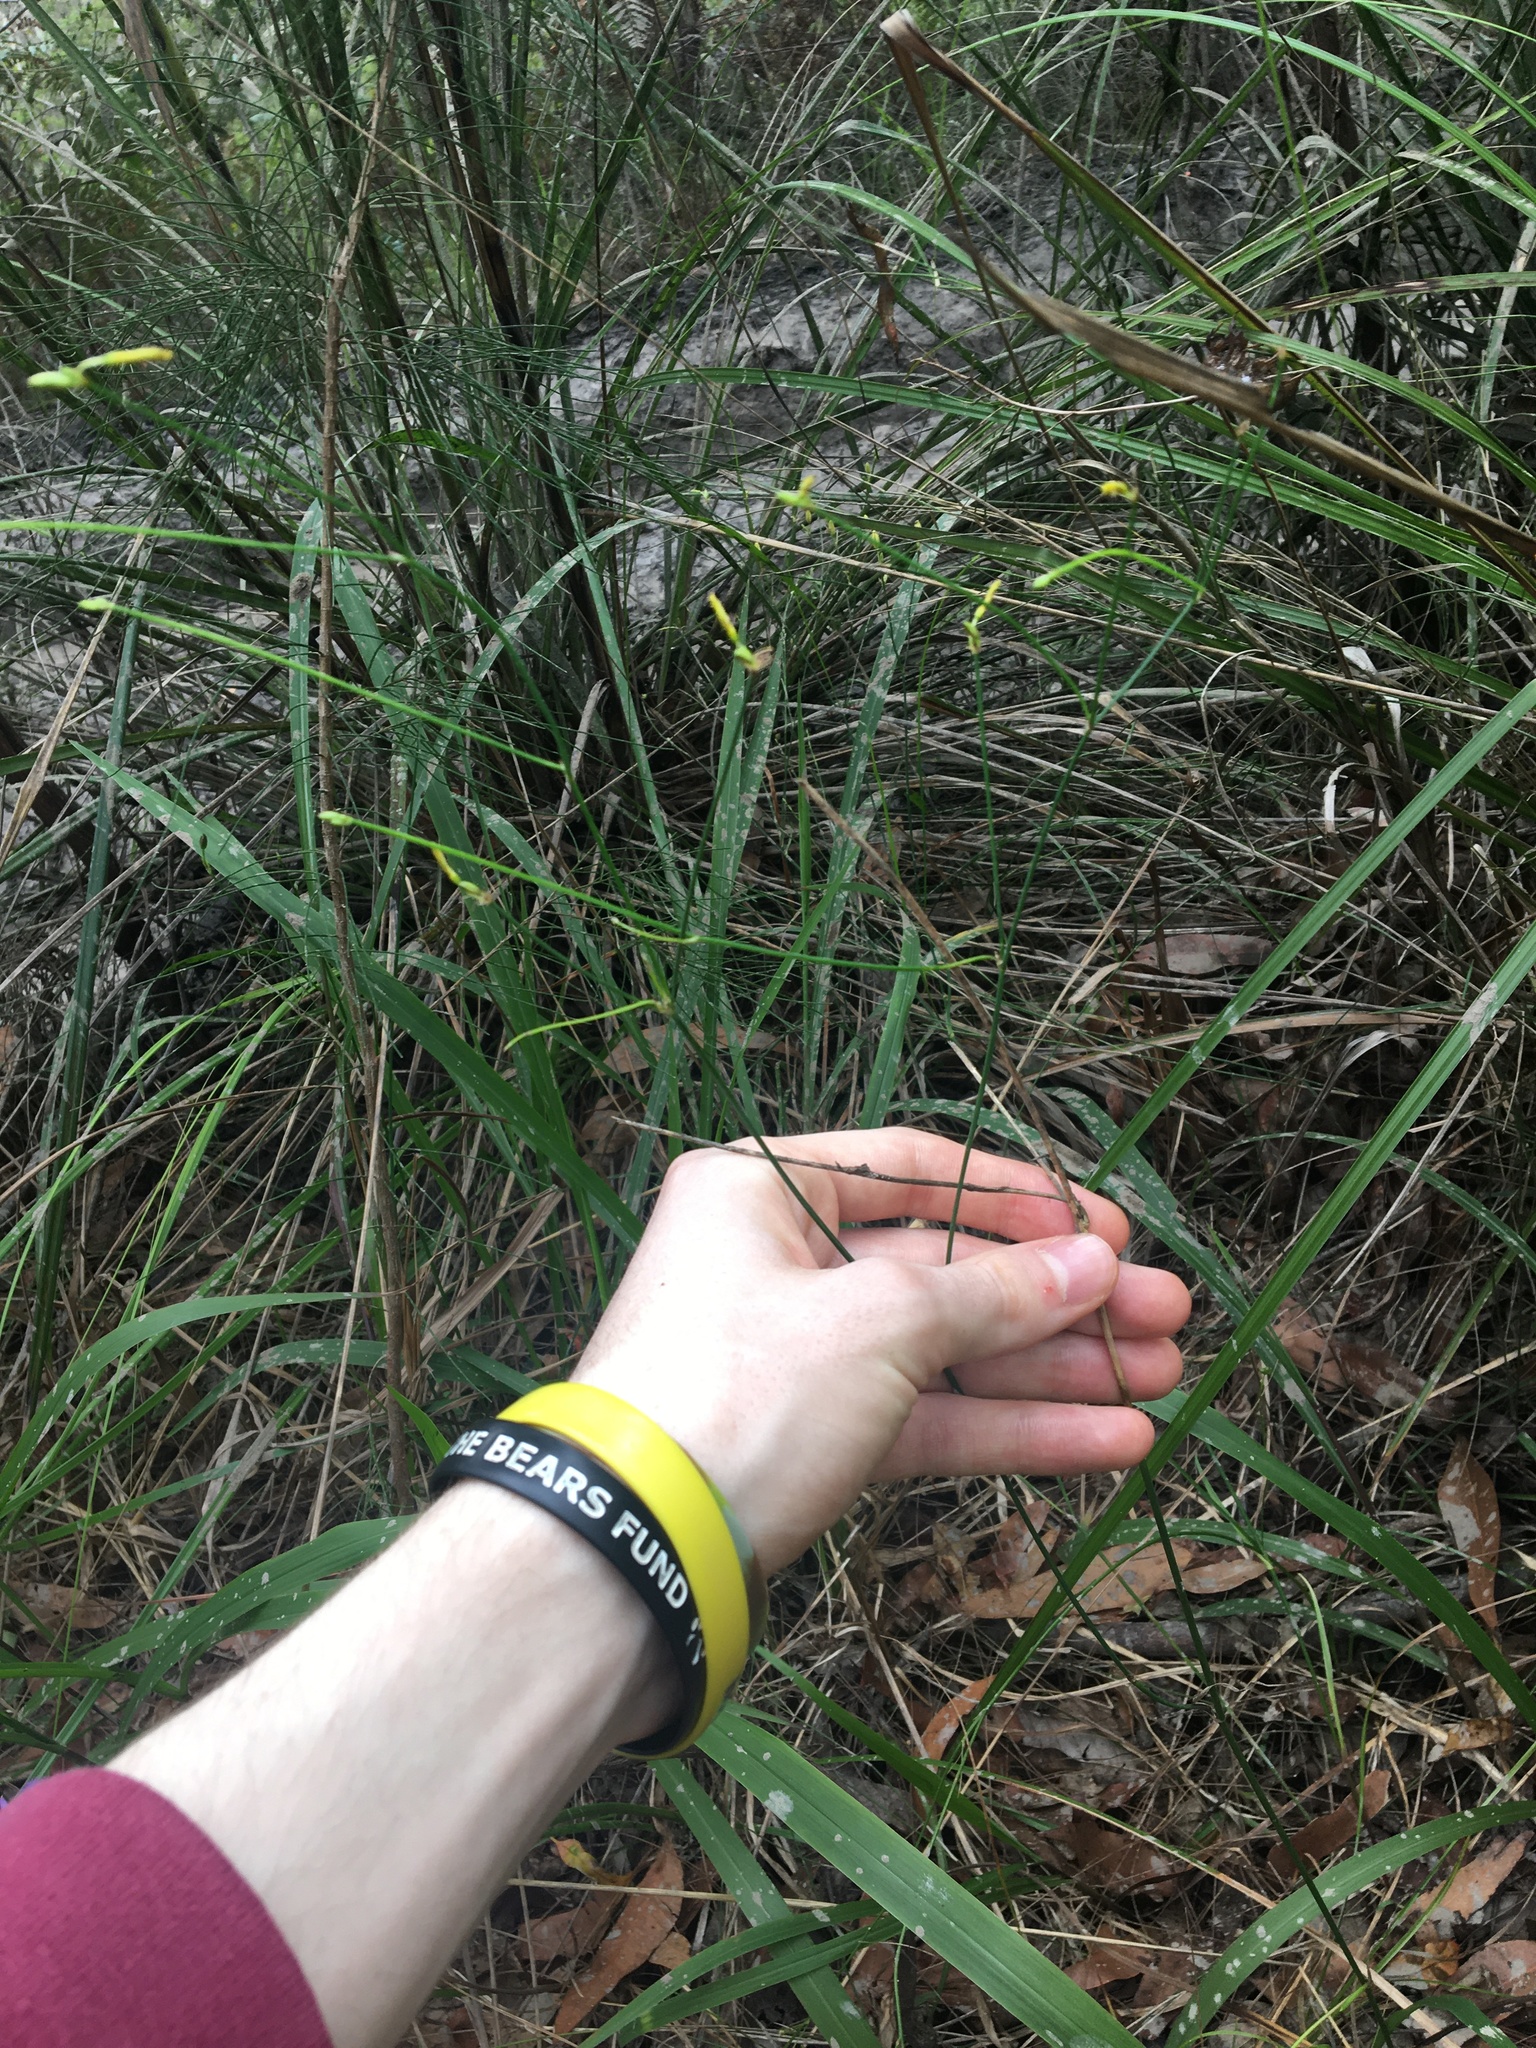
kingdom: Plantae
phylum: Tracheophyta
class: Liliopsida
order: Asparagales
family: Asphodelaceae
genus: Tricoryne
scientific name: Tricoryne elatior
